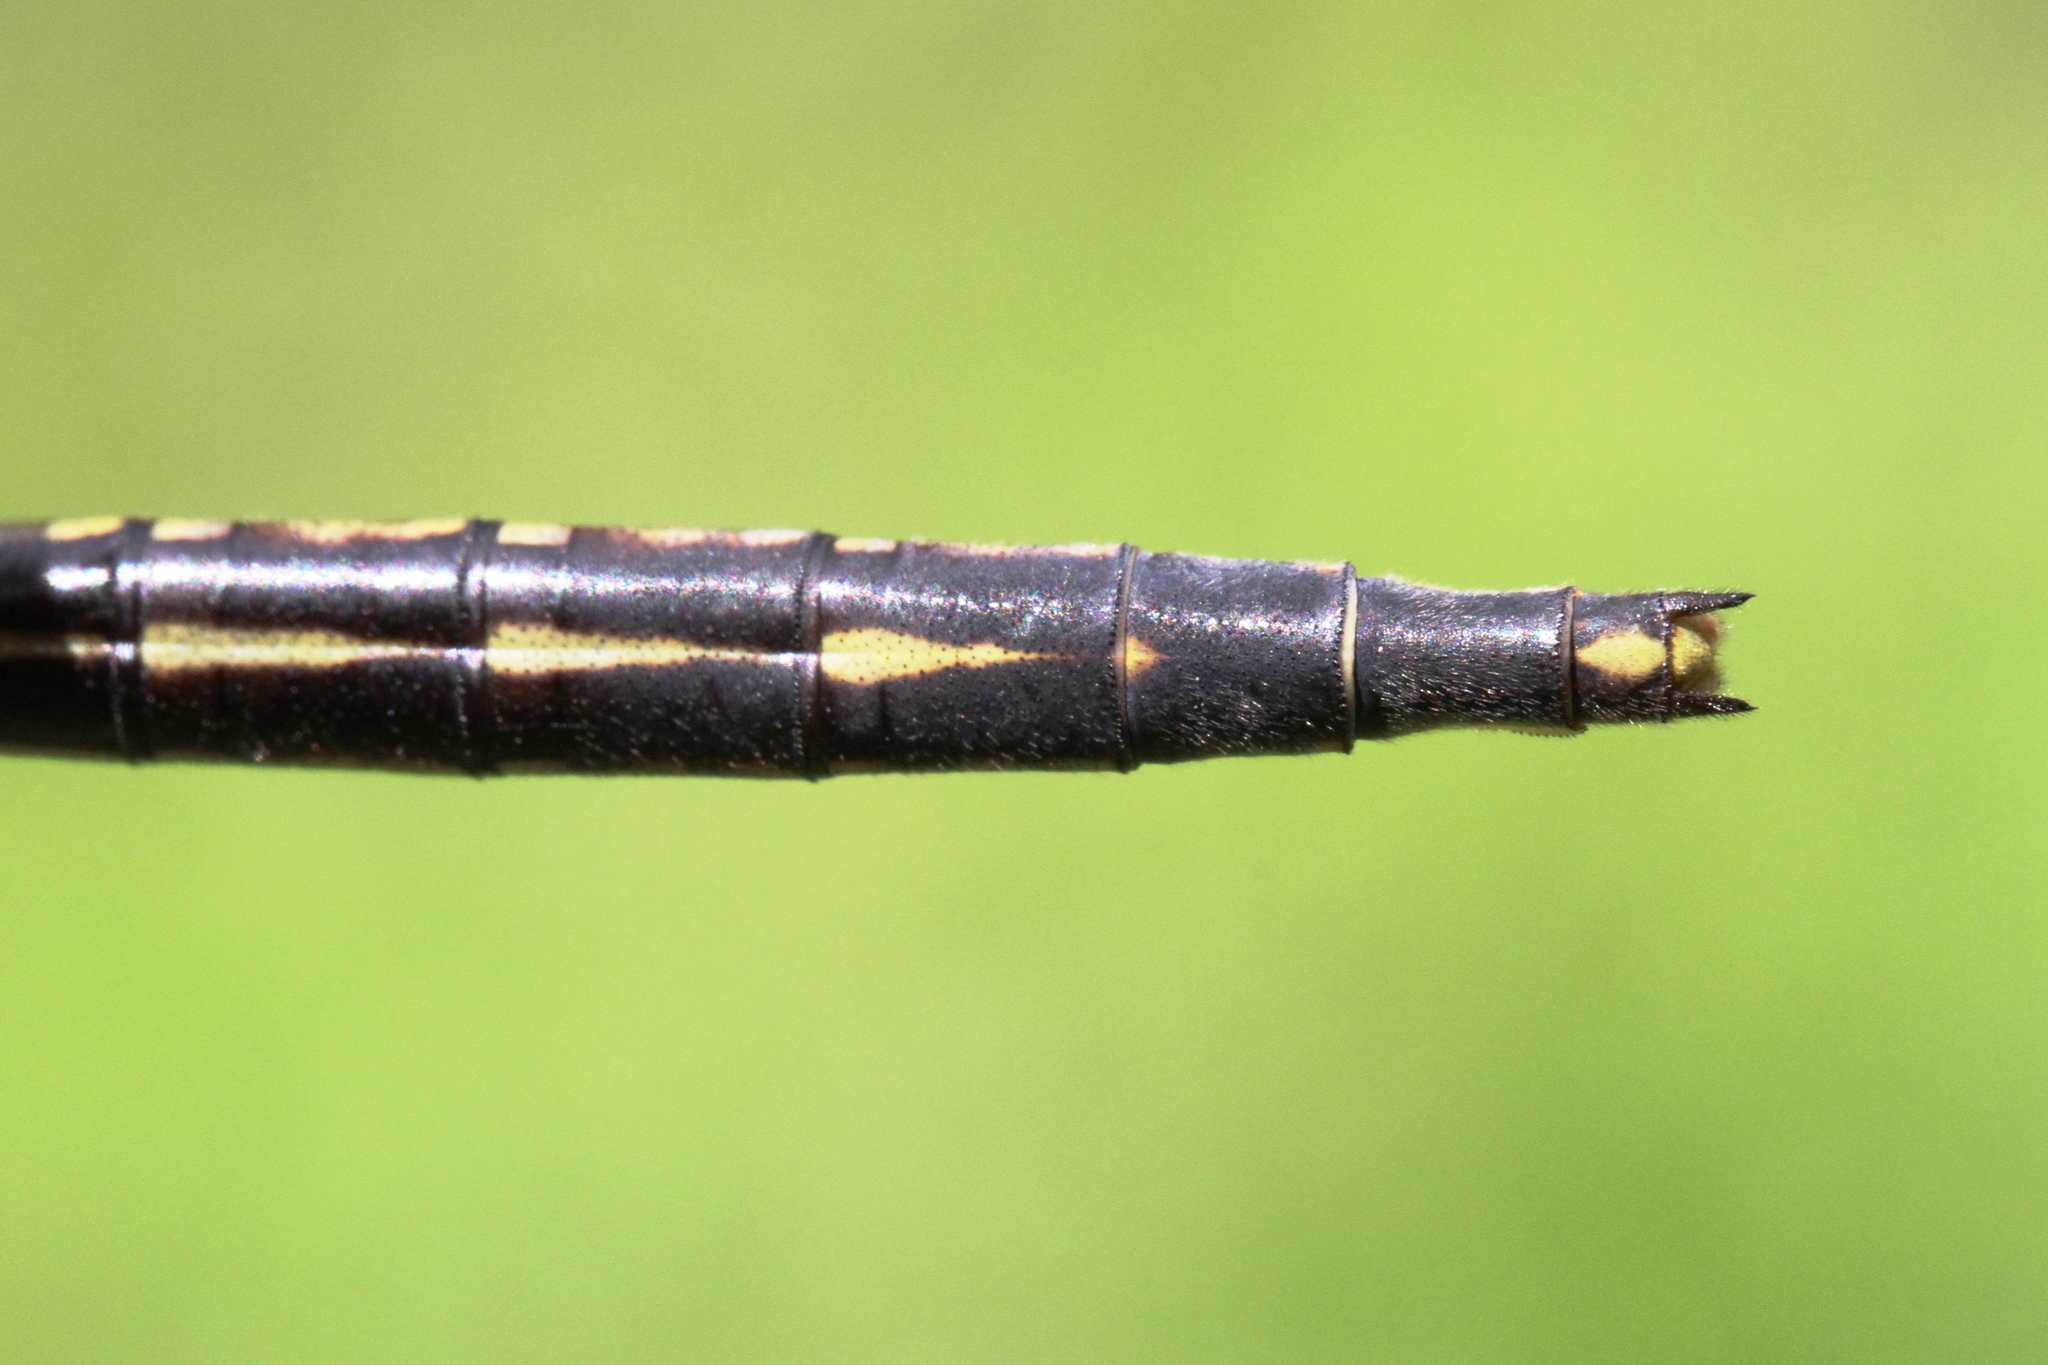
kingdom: Animalia
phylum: Arthropoda
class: Insecta
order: Odonata
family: Gomphidae
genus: Phanogomphus
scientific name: Phanogomphus spicatus
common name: Dusky clubtail
